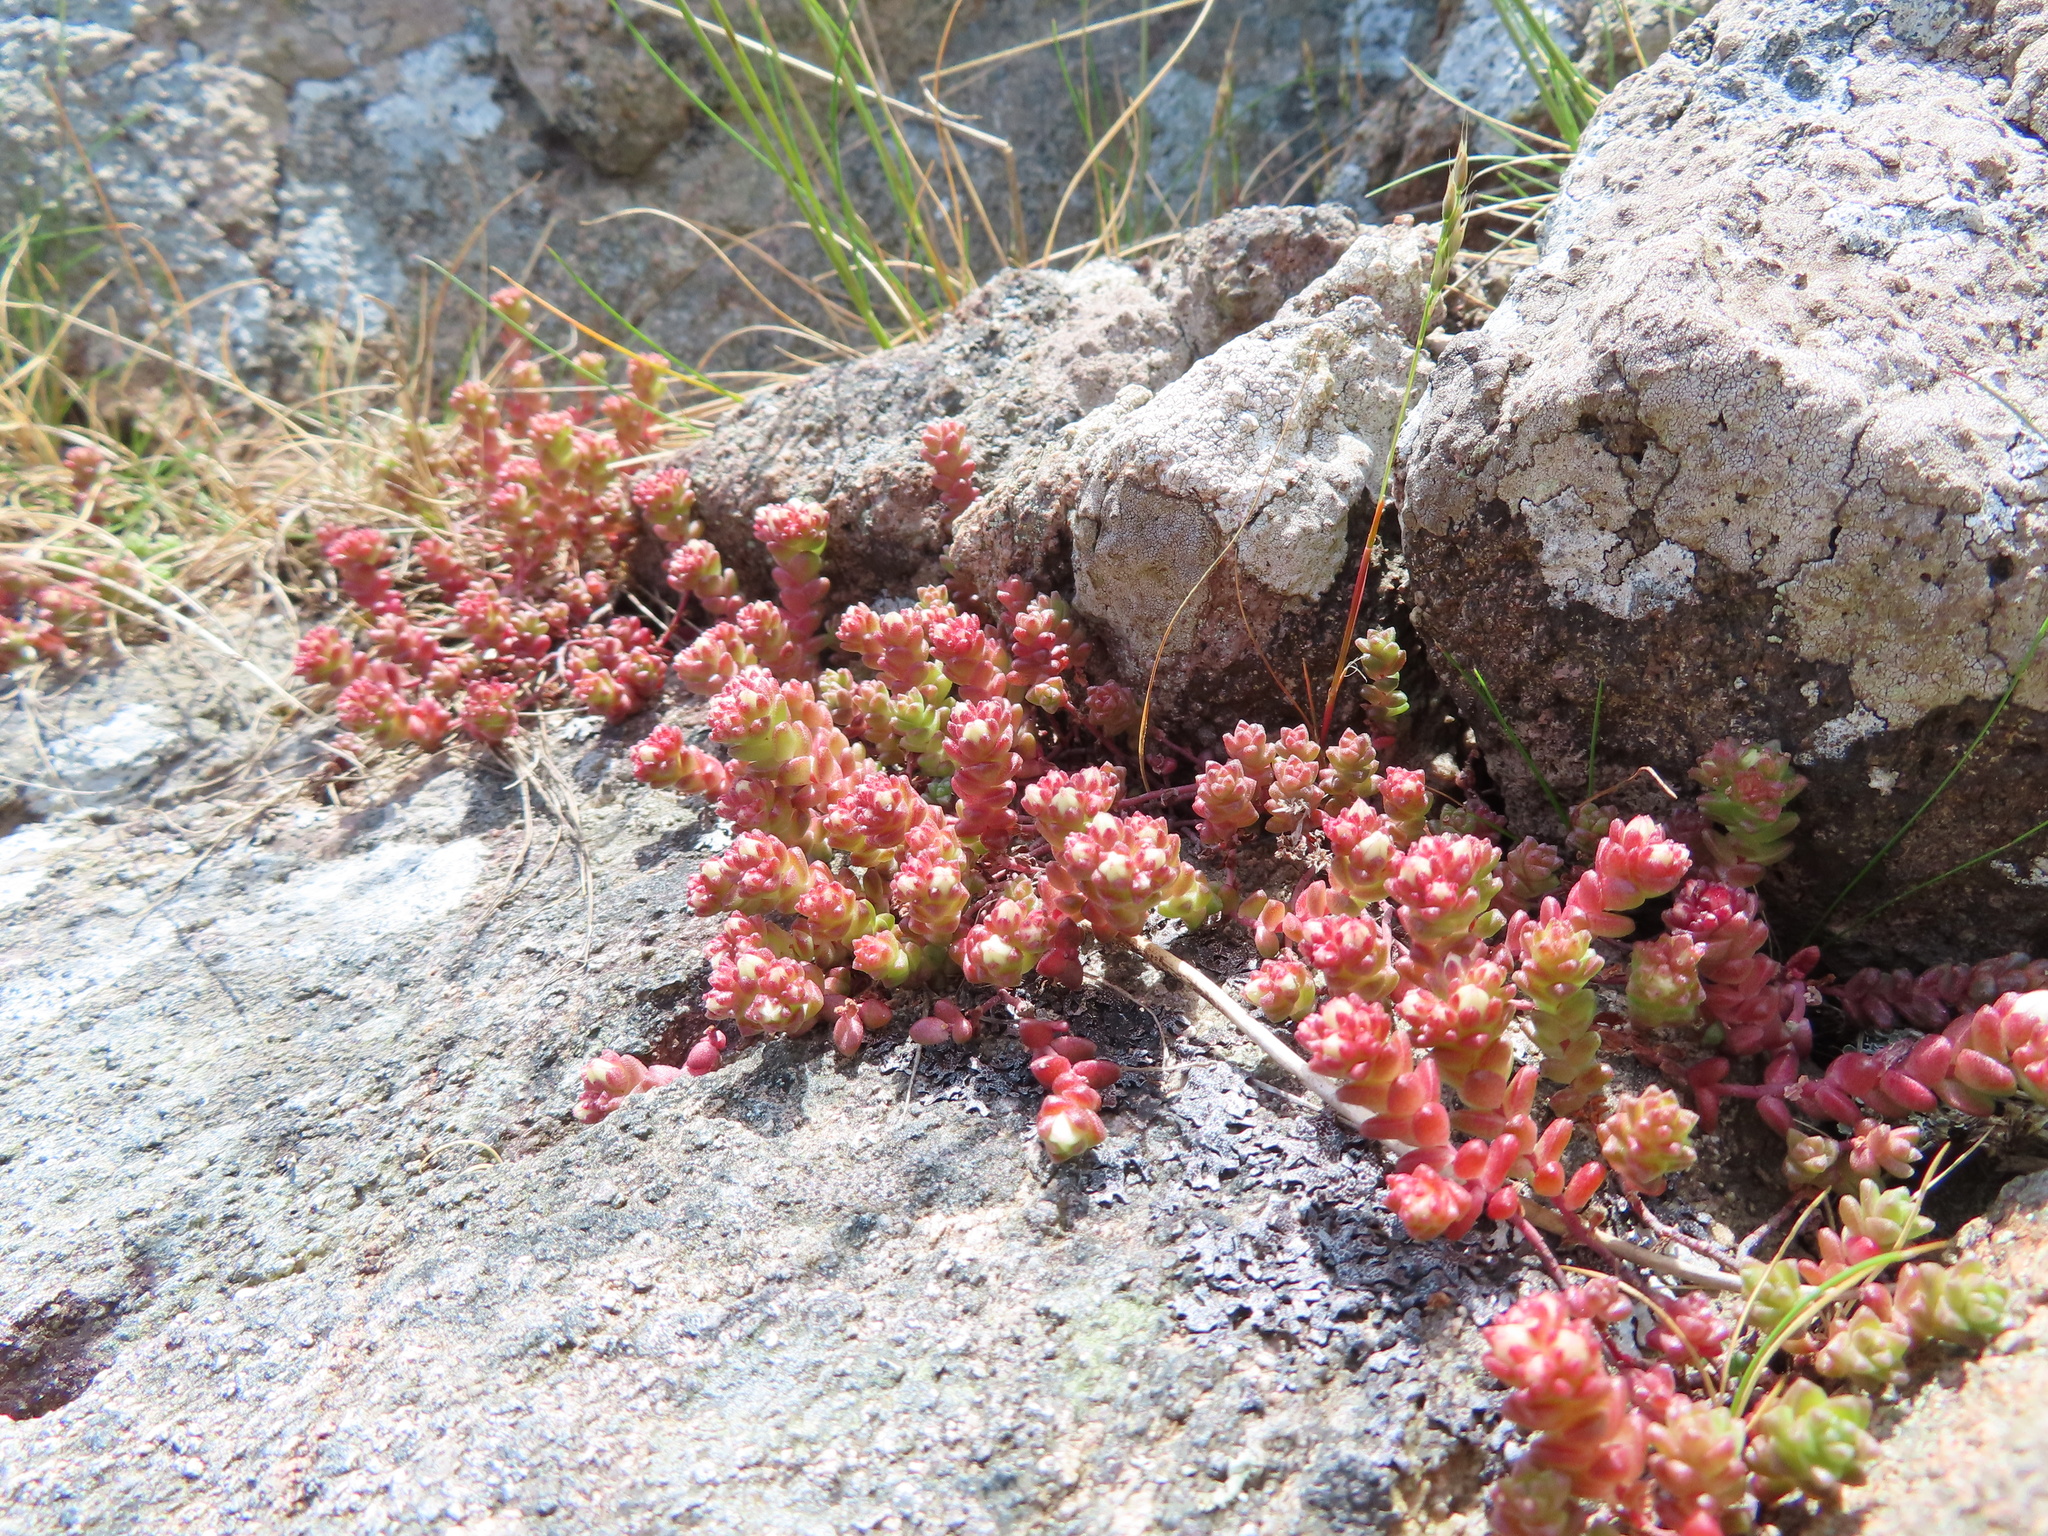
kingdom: Plantae
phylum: Tracheophyta
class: Magnoliopsida
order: Saxifragales
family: Crassulaceae
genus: Sedum
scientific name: Sedum anglicum
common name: English stonecrop
